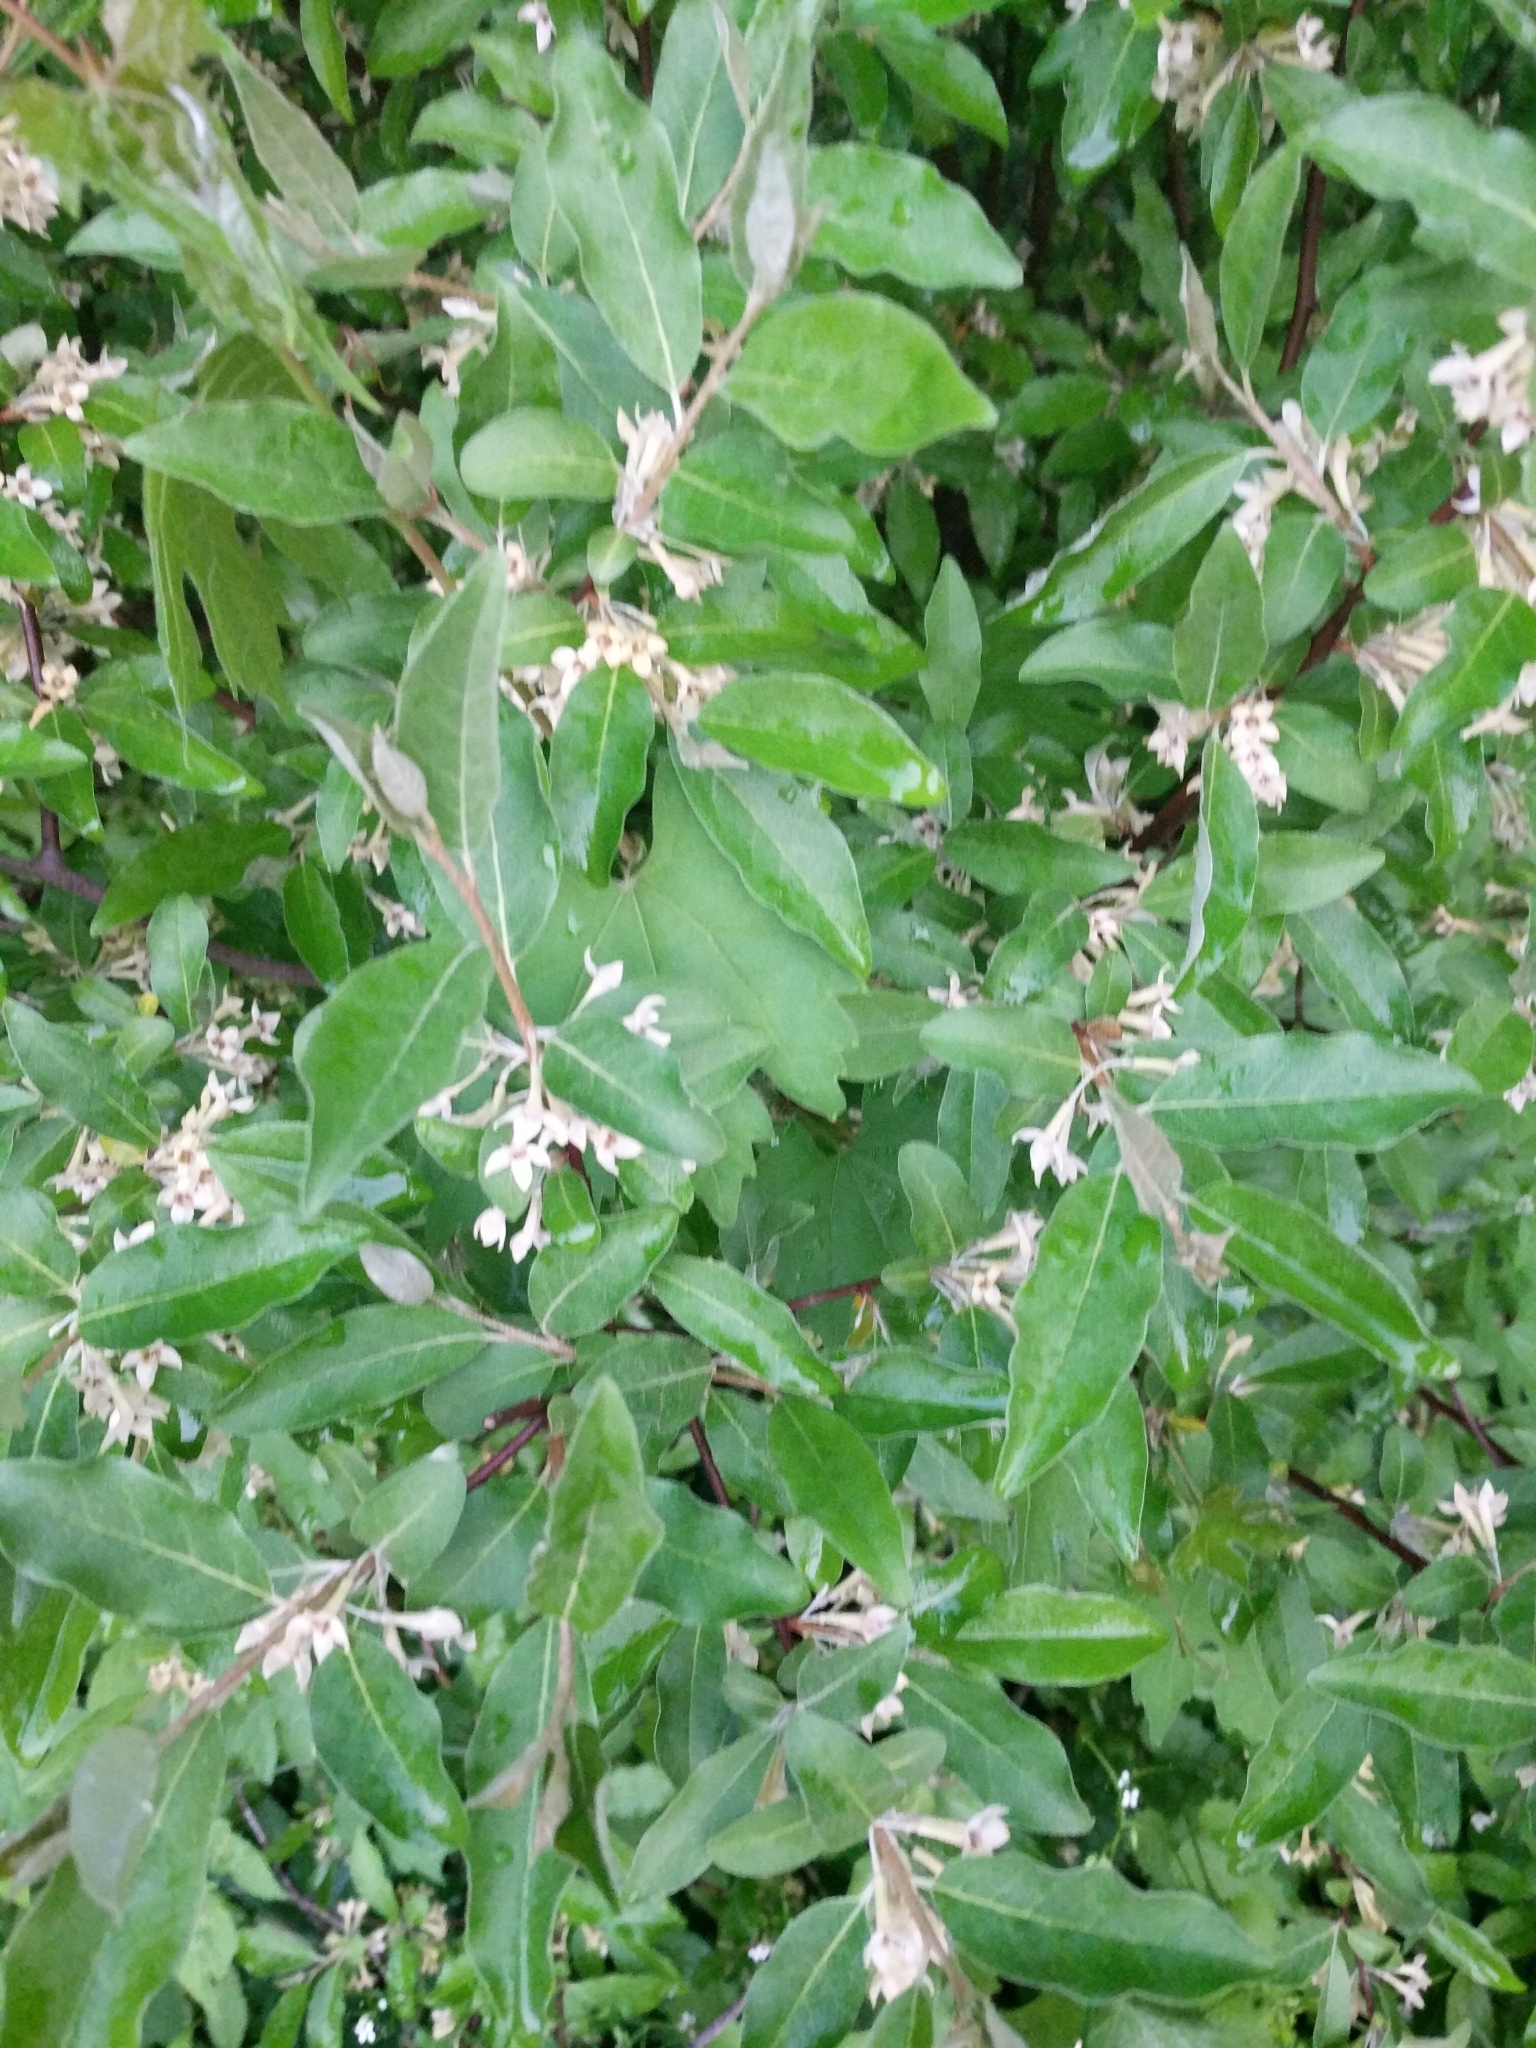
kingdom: Plantae
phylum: Tracheophyta
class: Magnoliopsida
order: Rosales
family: Elaeagnaceae
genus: Elaeagnus
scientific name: Elaeagnus umbellata
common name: Autumn olive
